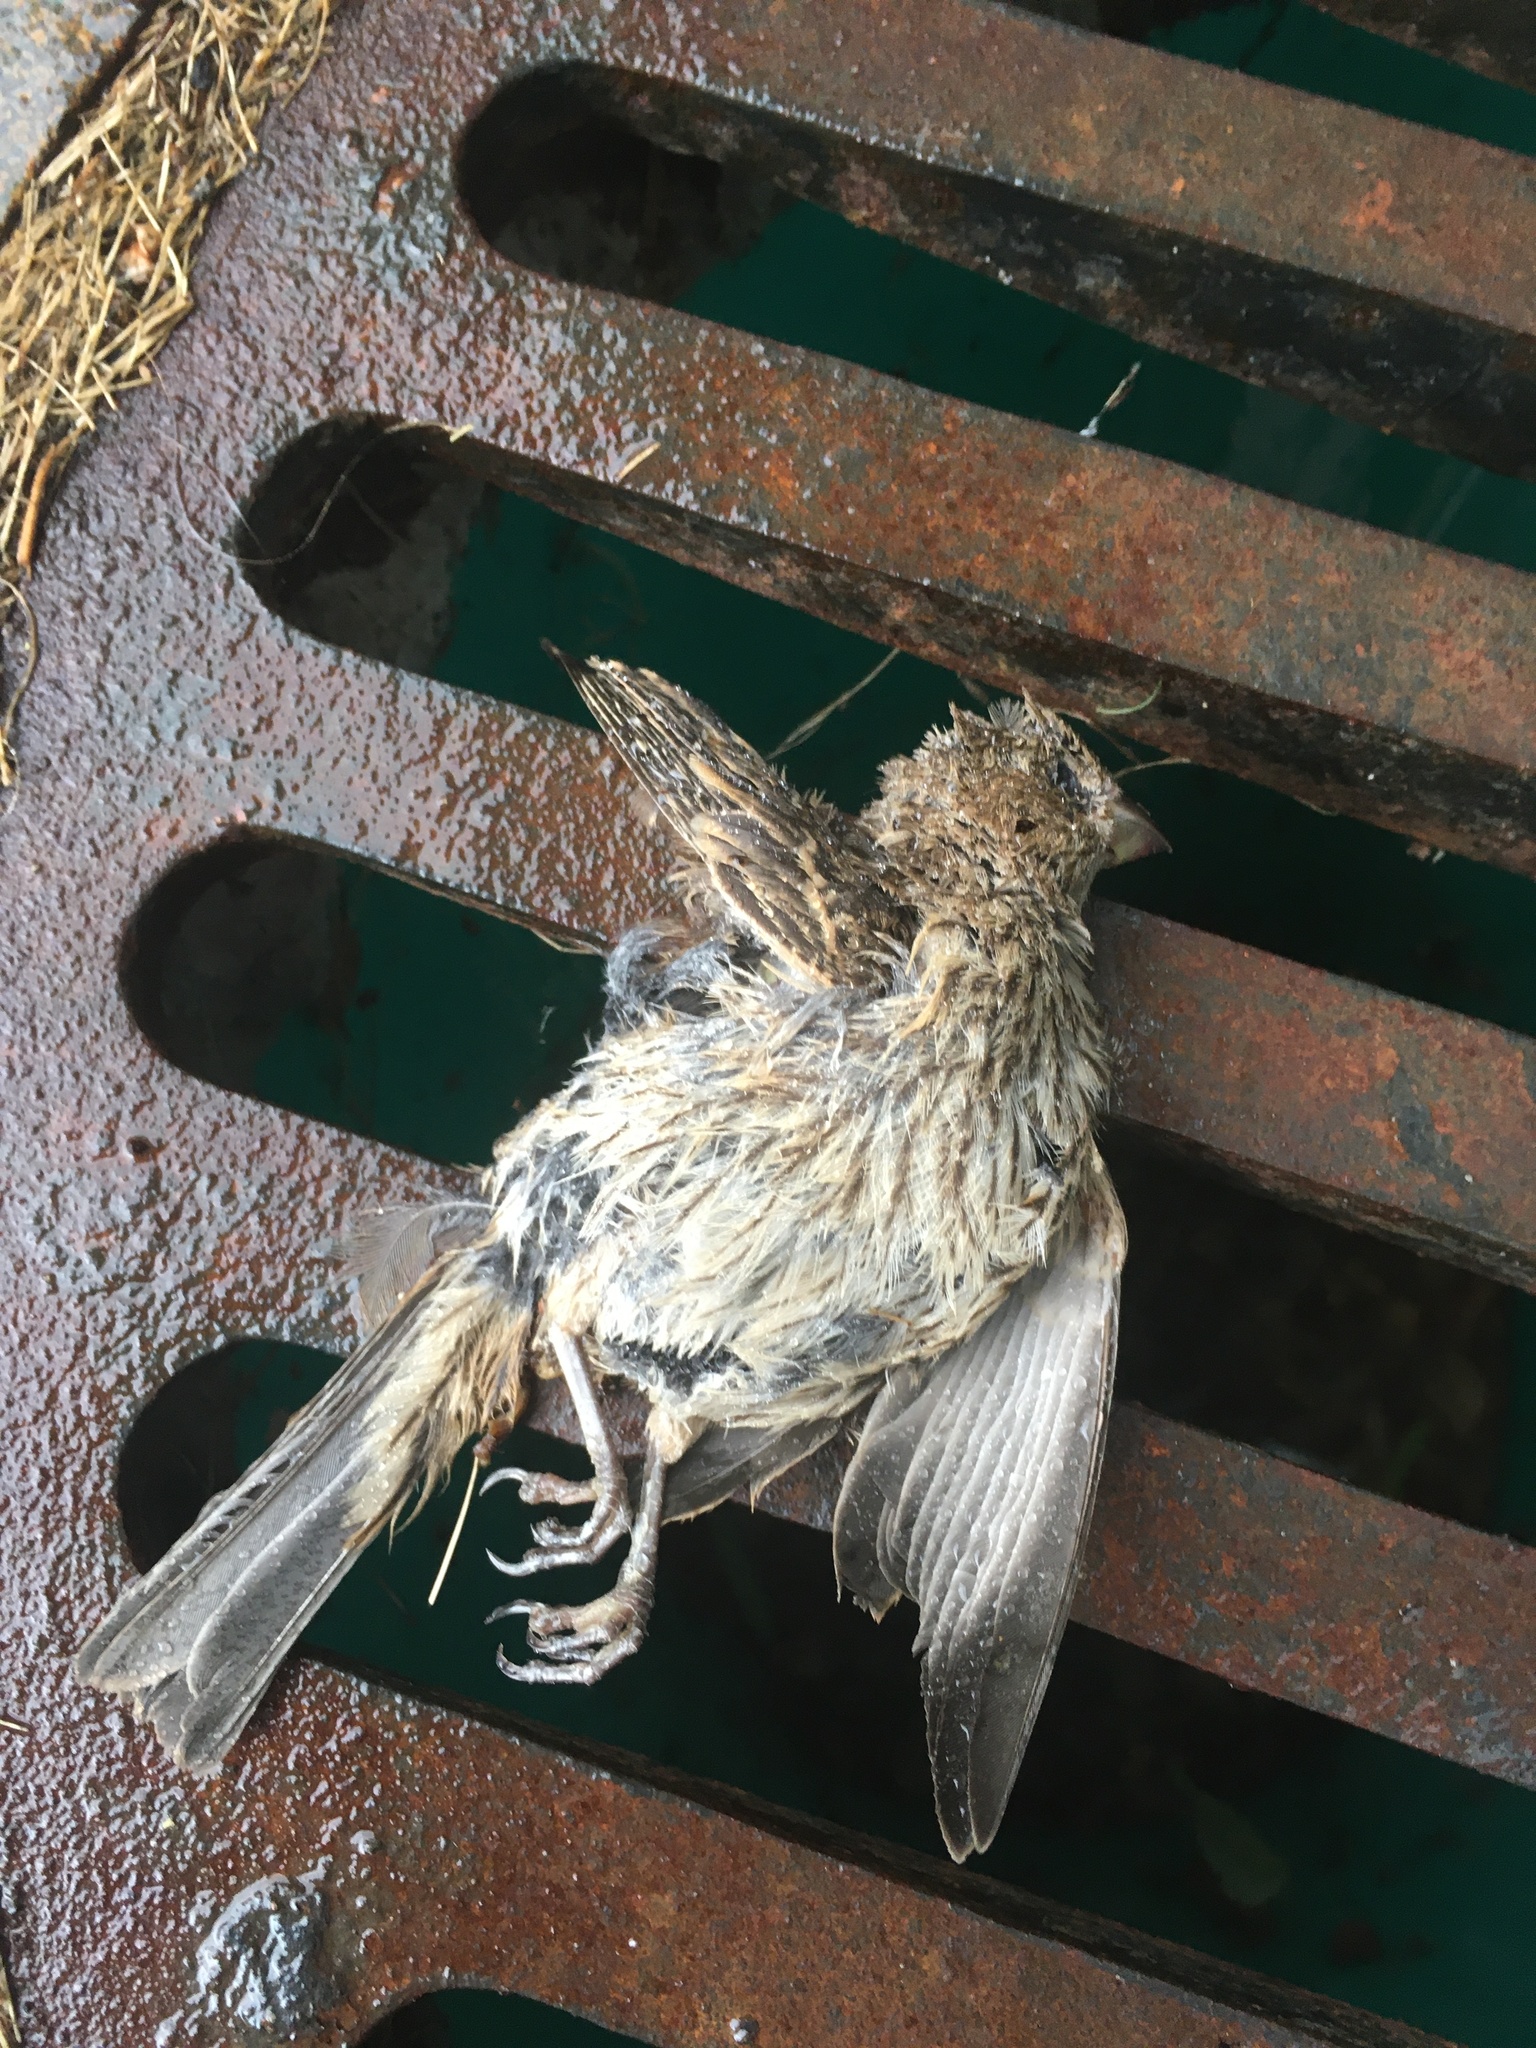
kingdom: Animalia
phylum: Chordata
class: Aves
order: Passeriformes
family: Fringillidae
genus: Haemorhous
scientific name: Haemorhous mexicanus
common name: House finch
